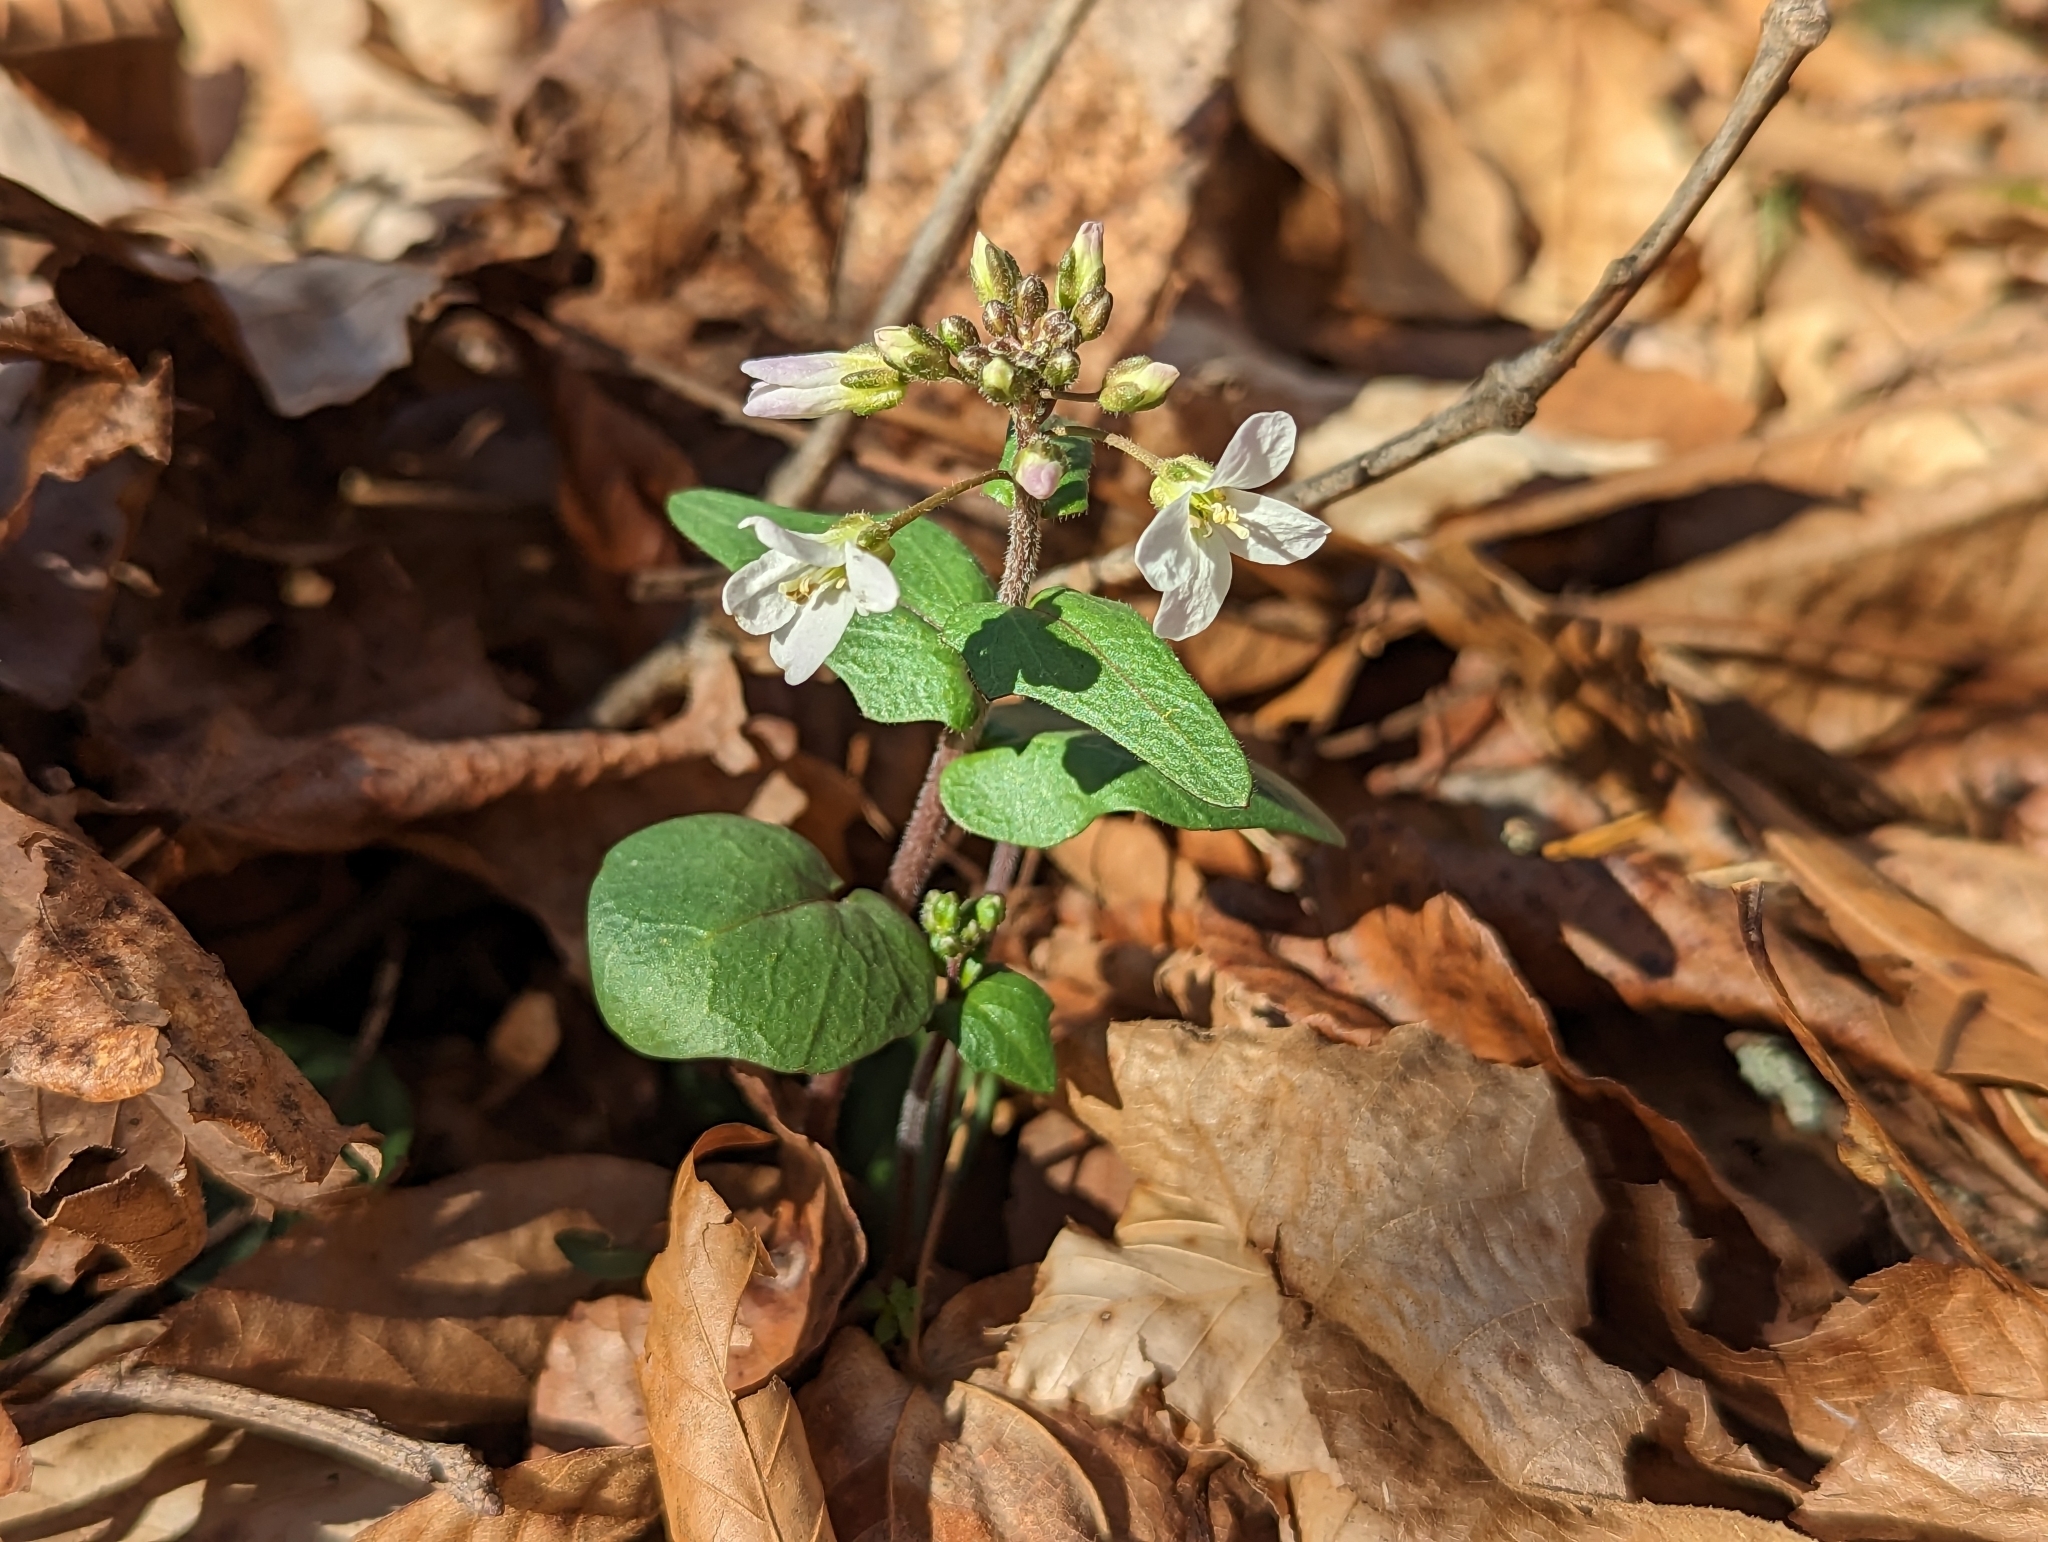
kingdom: Plantae
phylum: Tracheophyta
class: Magnoliopsida
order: Brassicales
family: Brassicaceae
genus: Cardamine
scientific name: Cardamine douglassii
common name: Purple cress
